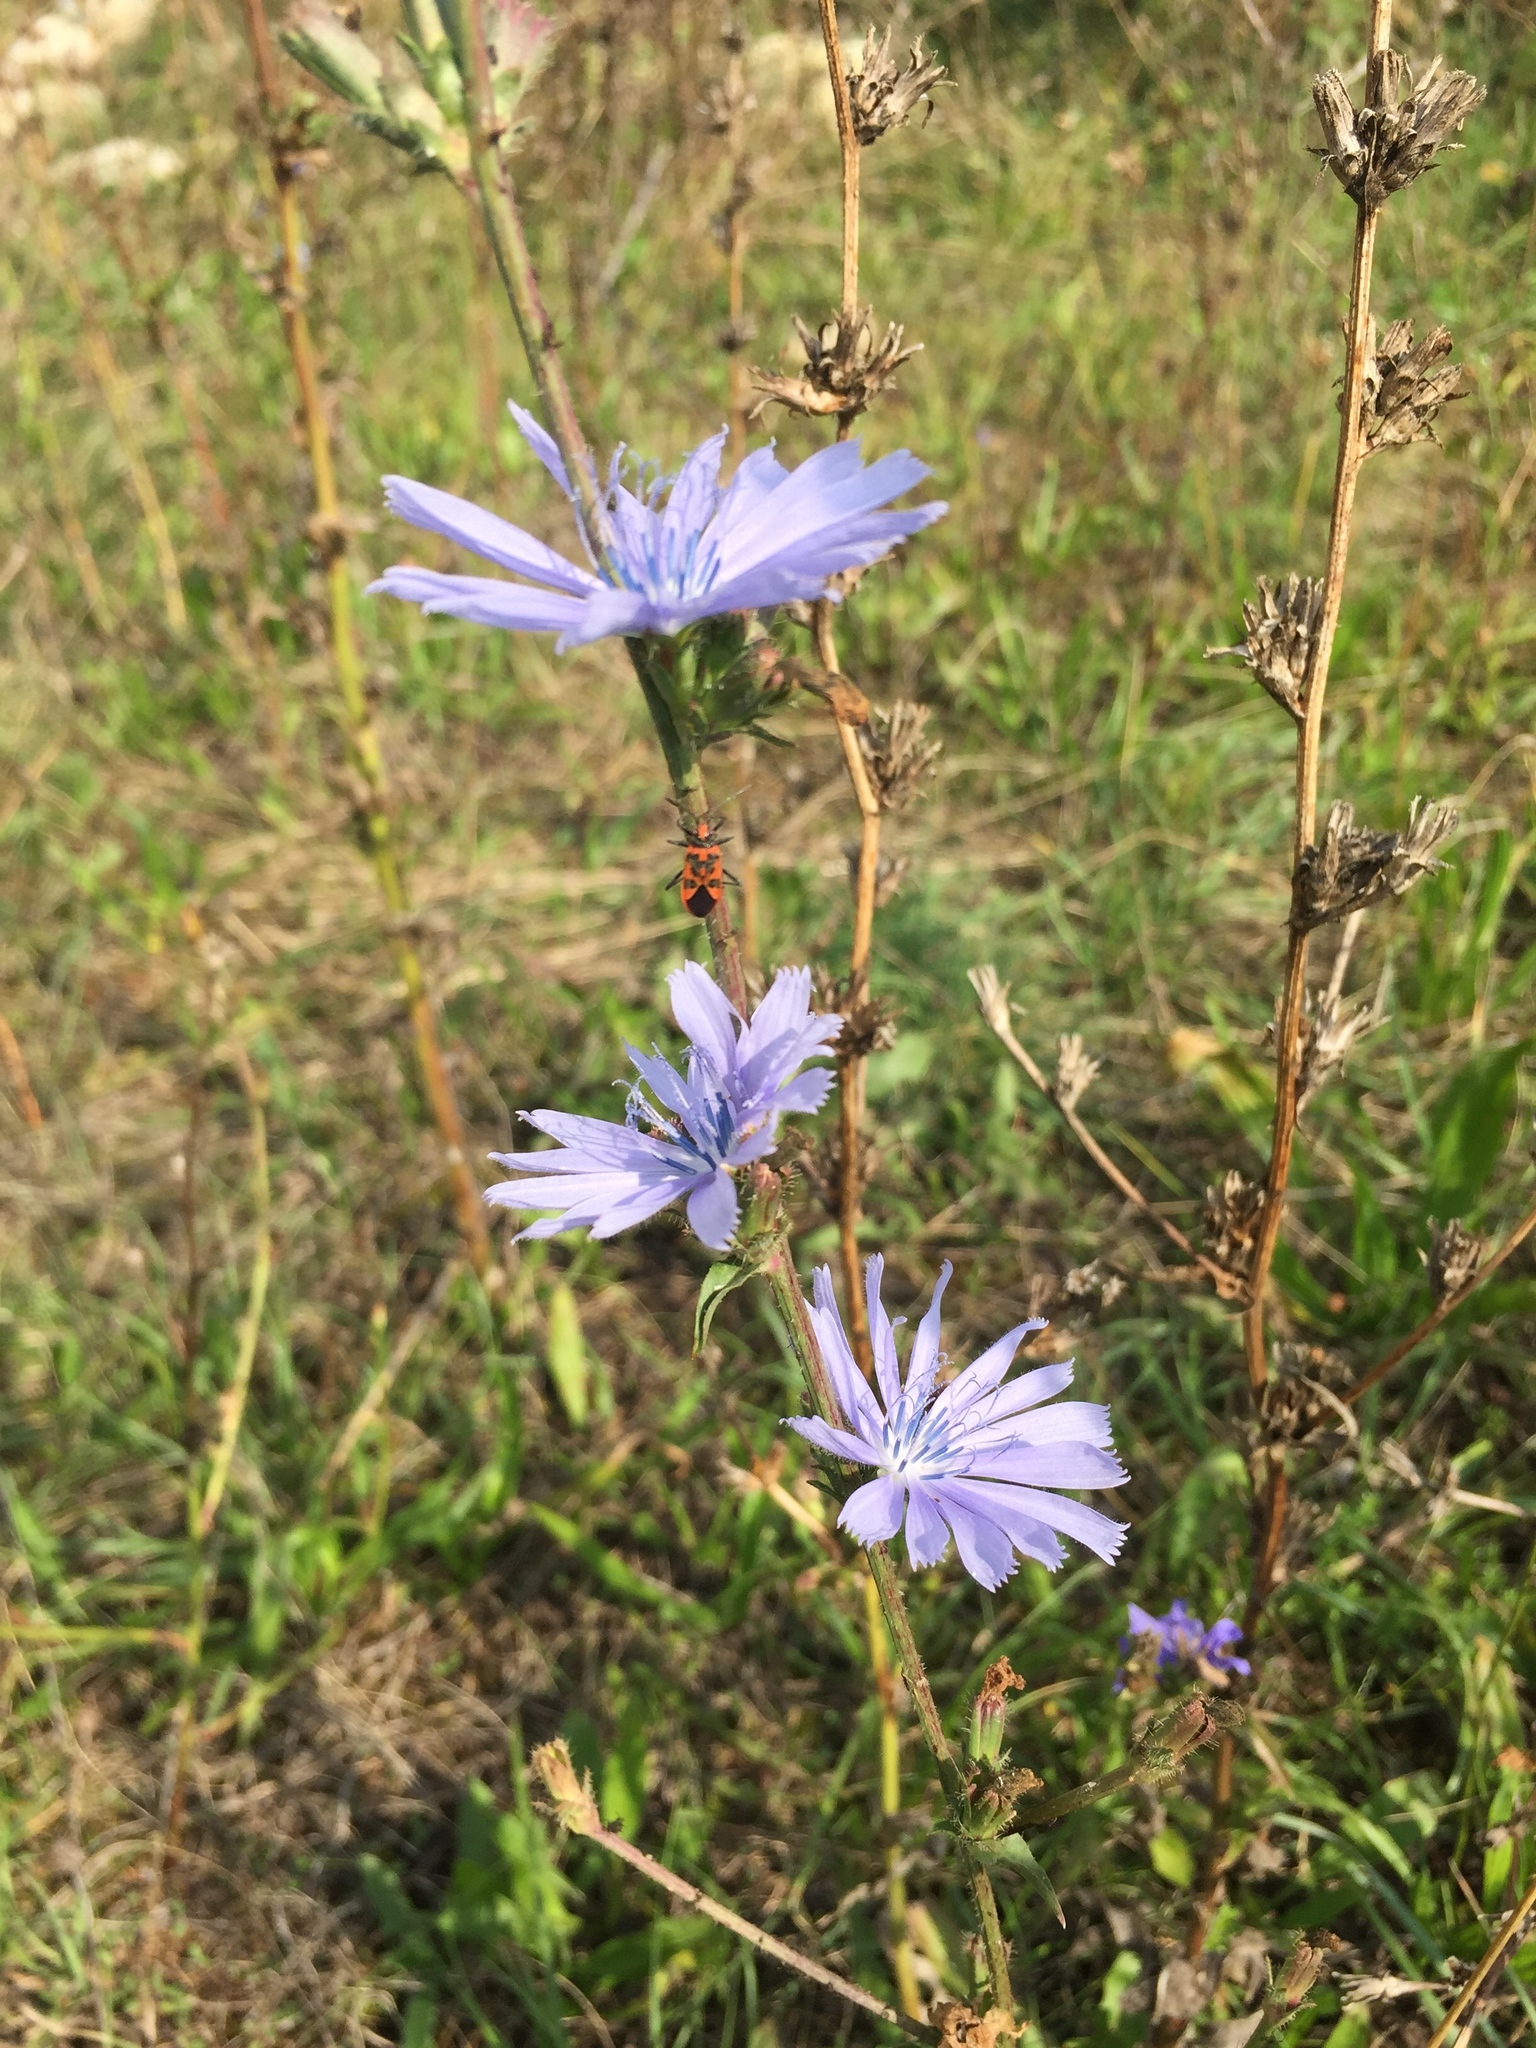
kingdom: Plantae
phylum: Tracheophyta
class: Magnoliopsida
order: Asterales
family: Asteraceae
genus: Cichorium
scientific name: Cichorium intybus
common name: Chicory
